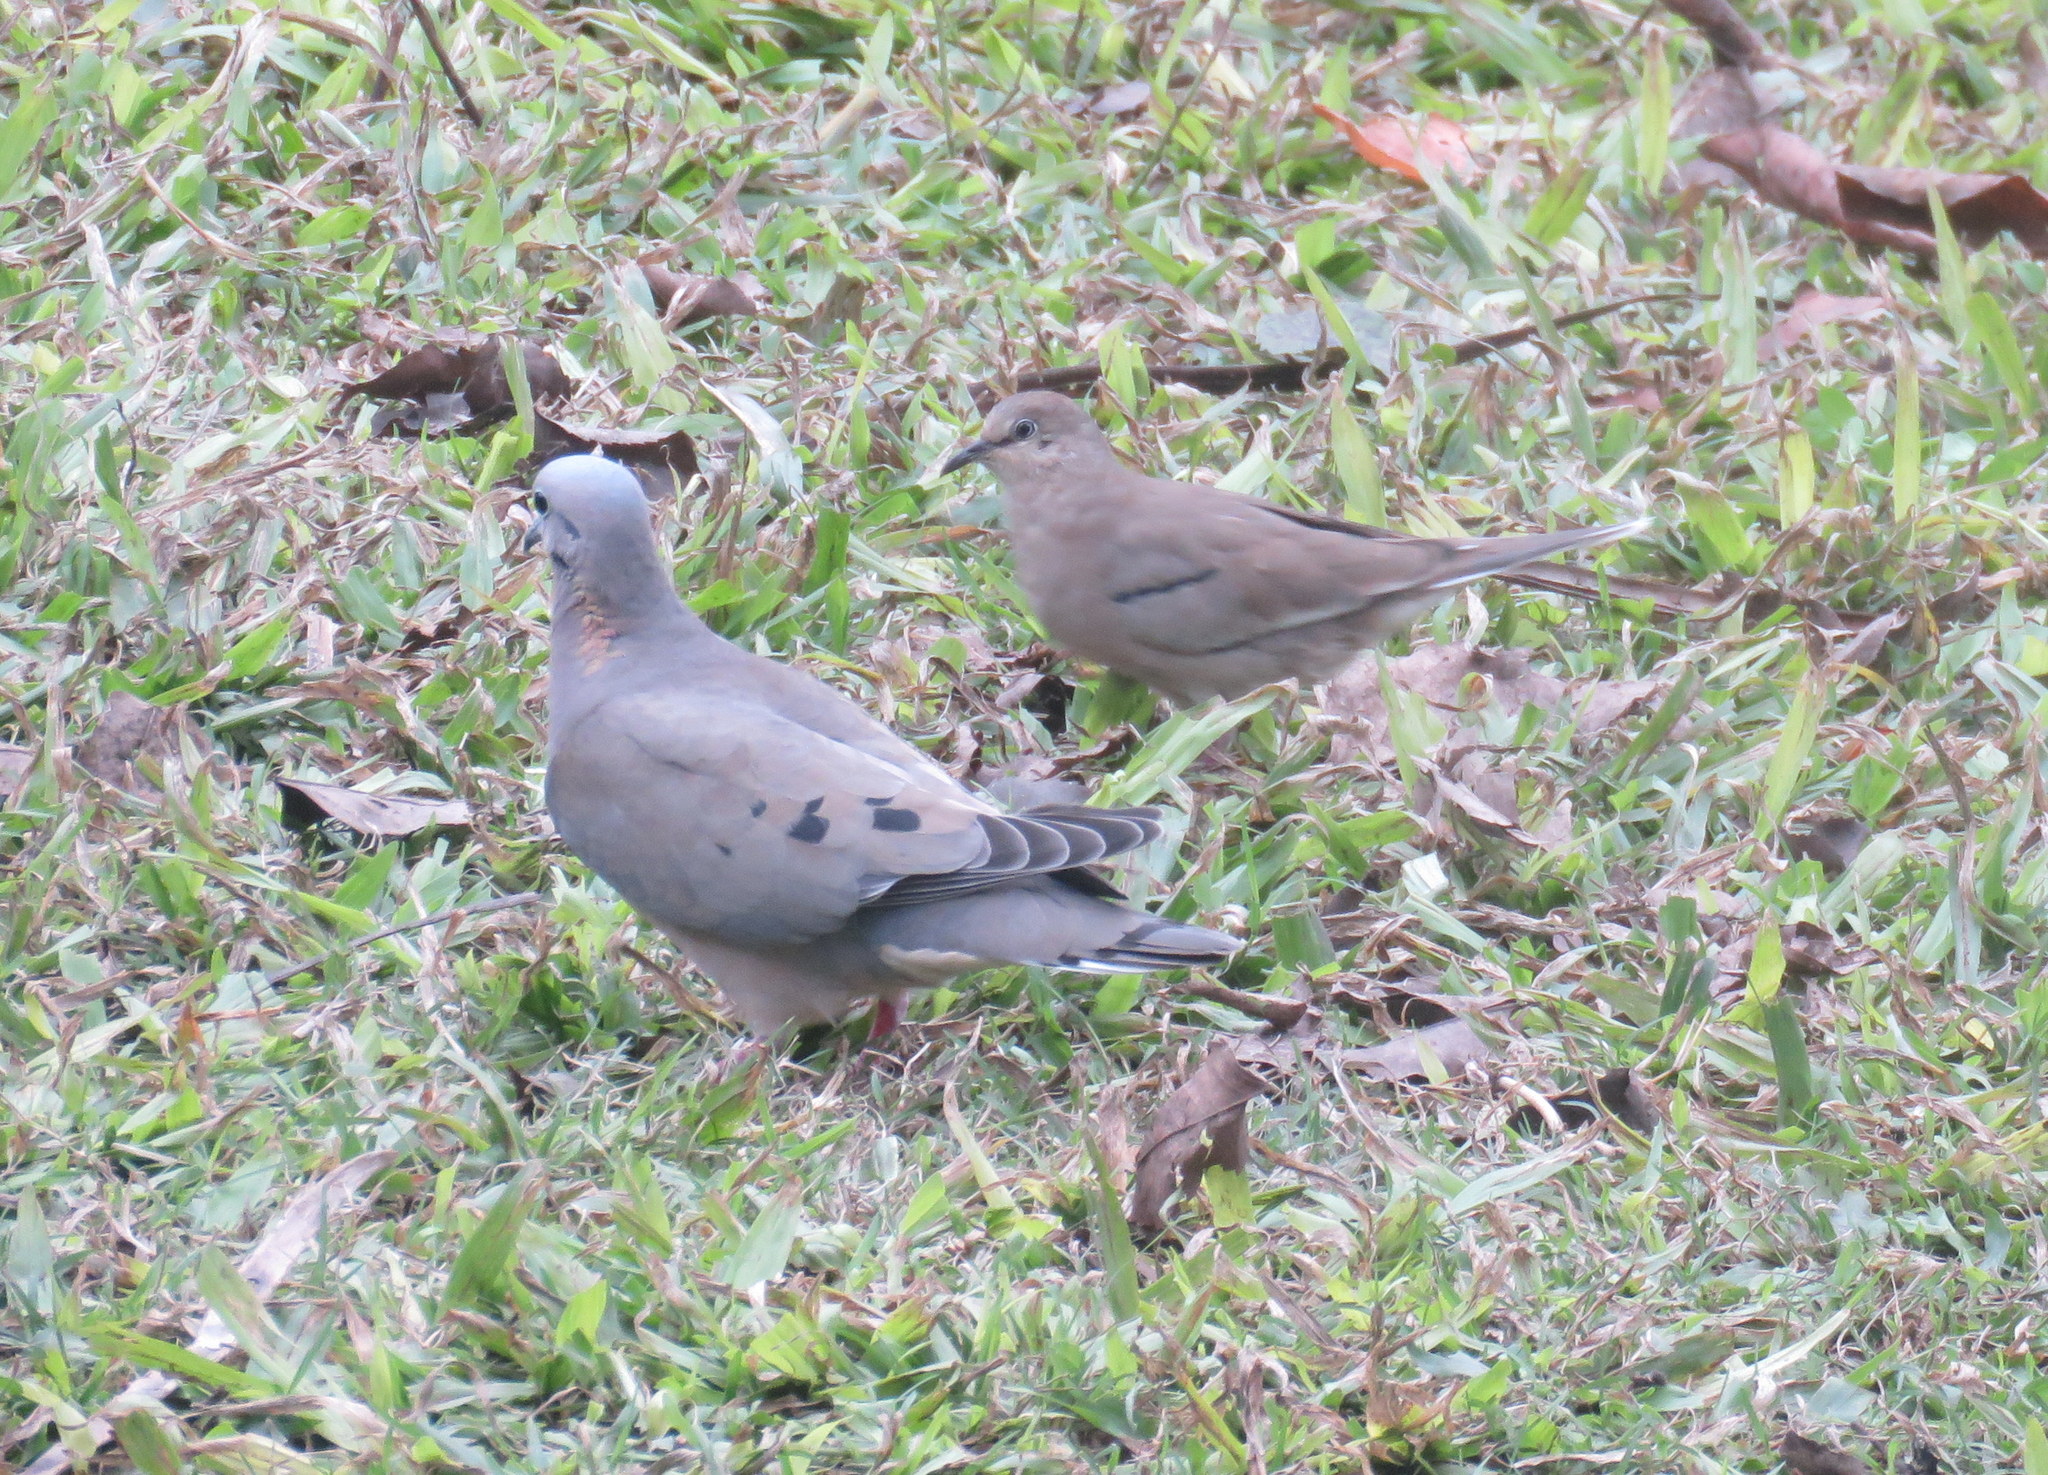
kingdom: Animalia
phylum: Chordata
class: Aves
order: Columbiformes
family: Columbidae
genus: Columbina
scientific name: Columbina picui
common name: Picui ground dove
